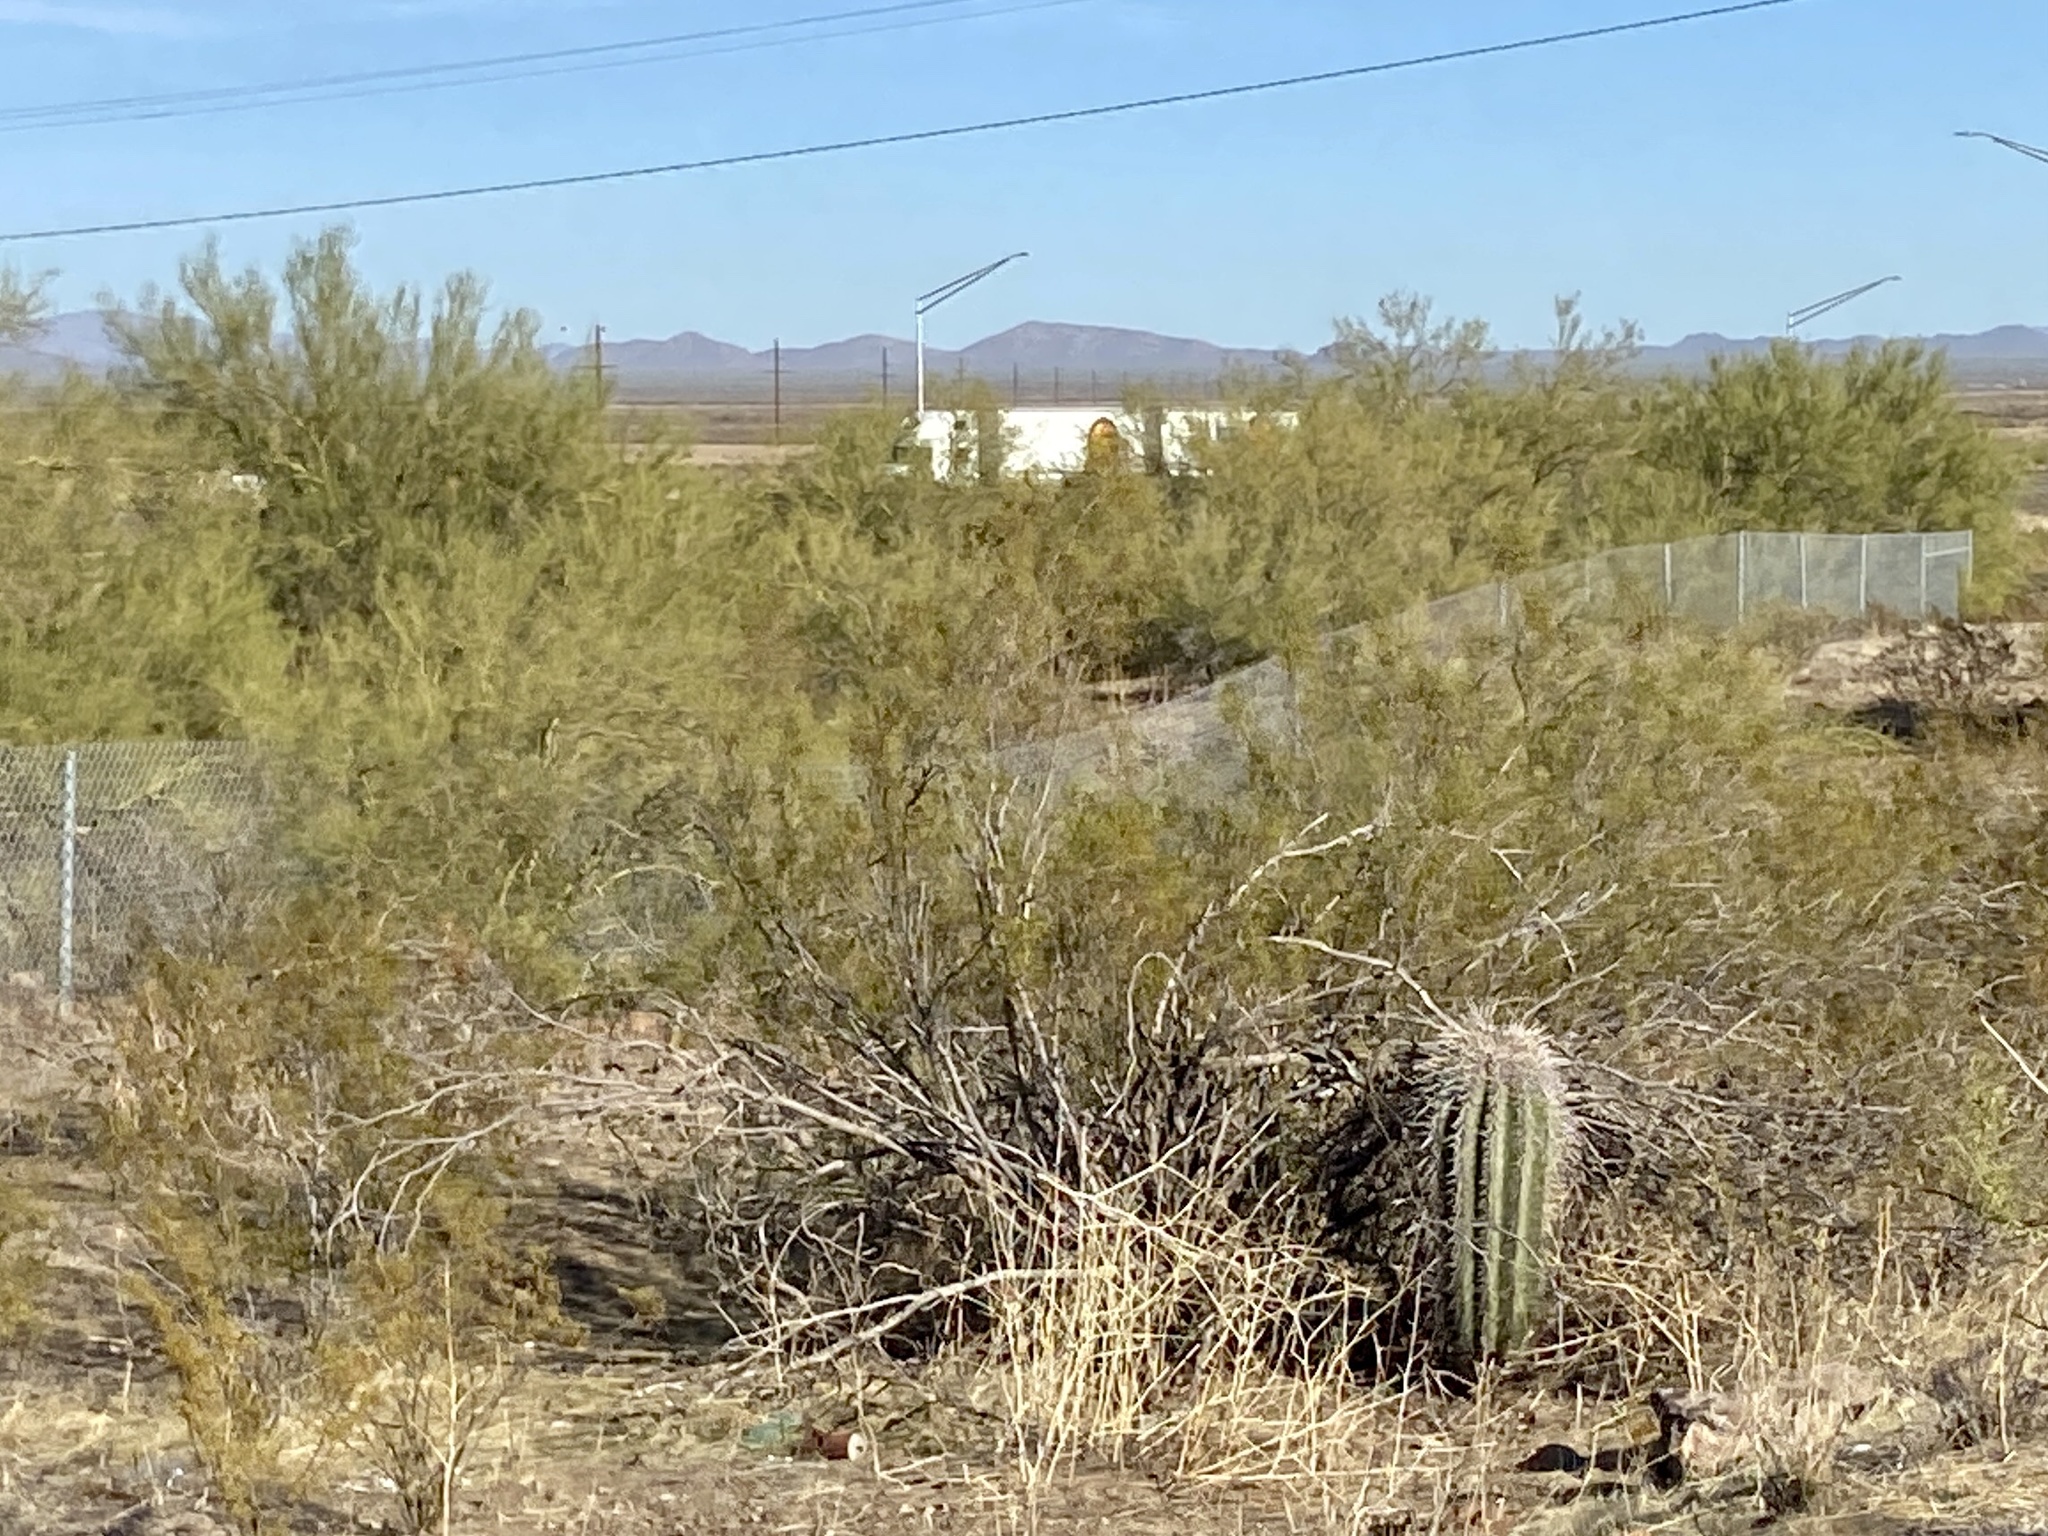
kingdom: Plantae
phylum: Tracheophyta
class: Magnoliopsida
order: Zygophyllales
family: Zygophyllaceae
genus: Larrea
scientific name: Larrea tridentata
